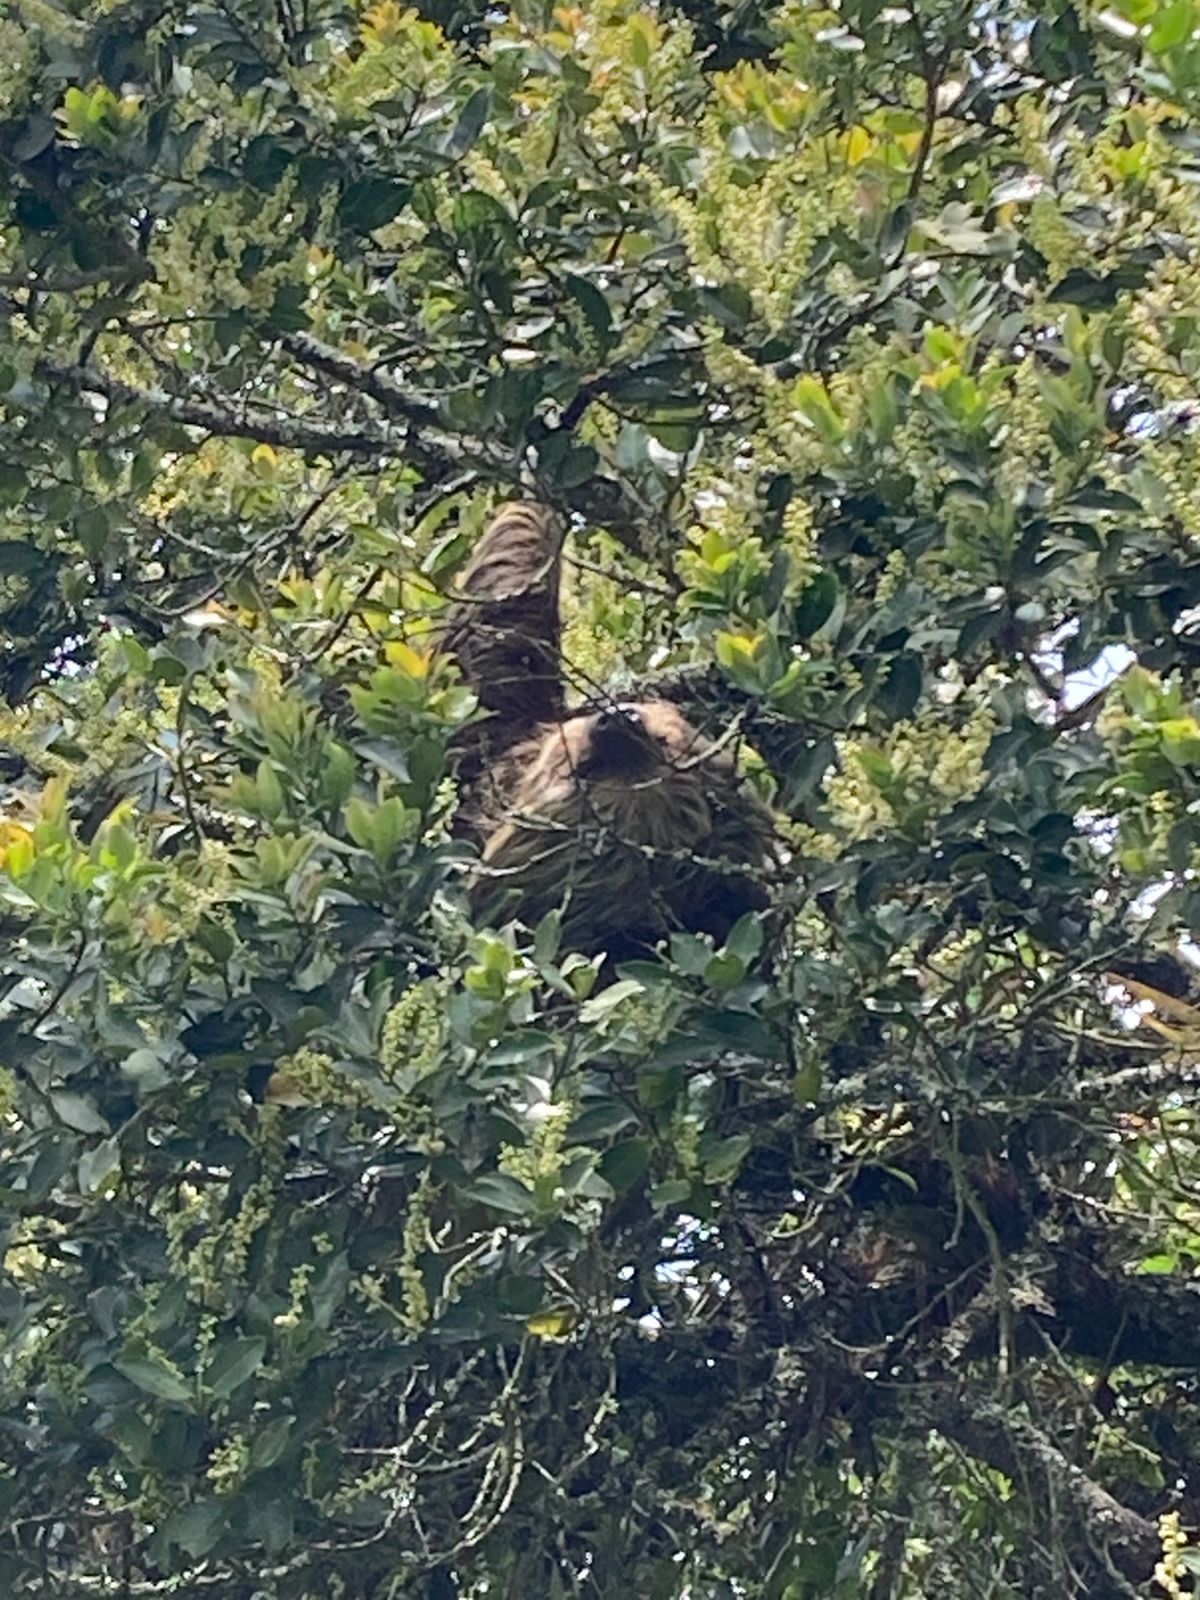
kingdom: Animalia
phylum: Chordata
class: Mammalia
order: Pilosa
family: Megalonychidae
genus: Choloepus
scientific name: Choloepus hoffmanni
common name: Hoffmann's two-toed sloth
